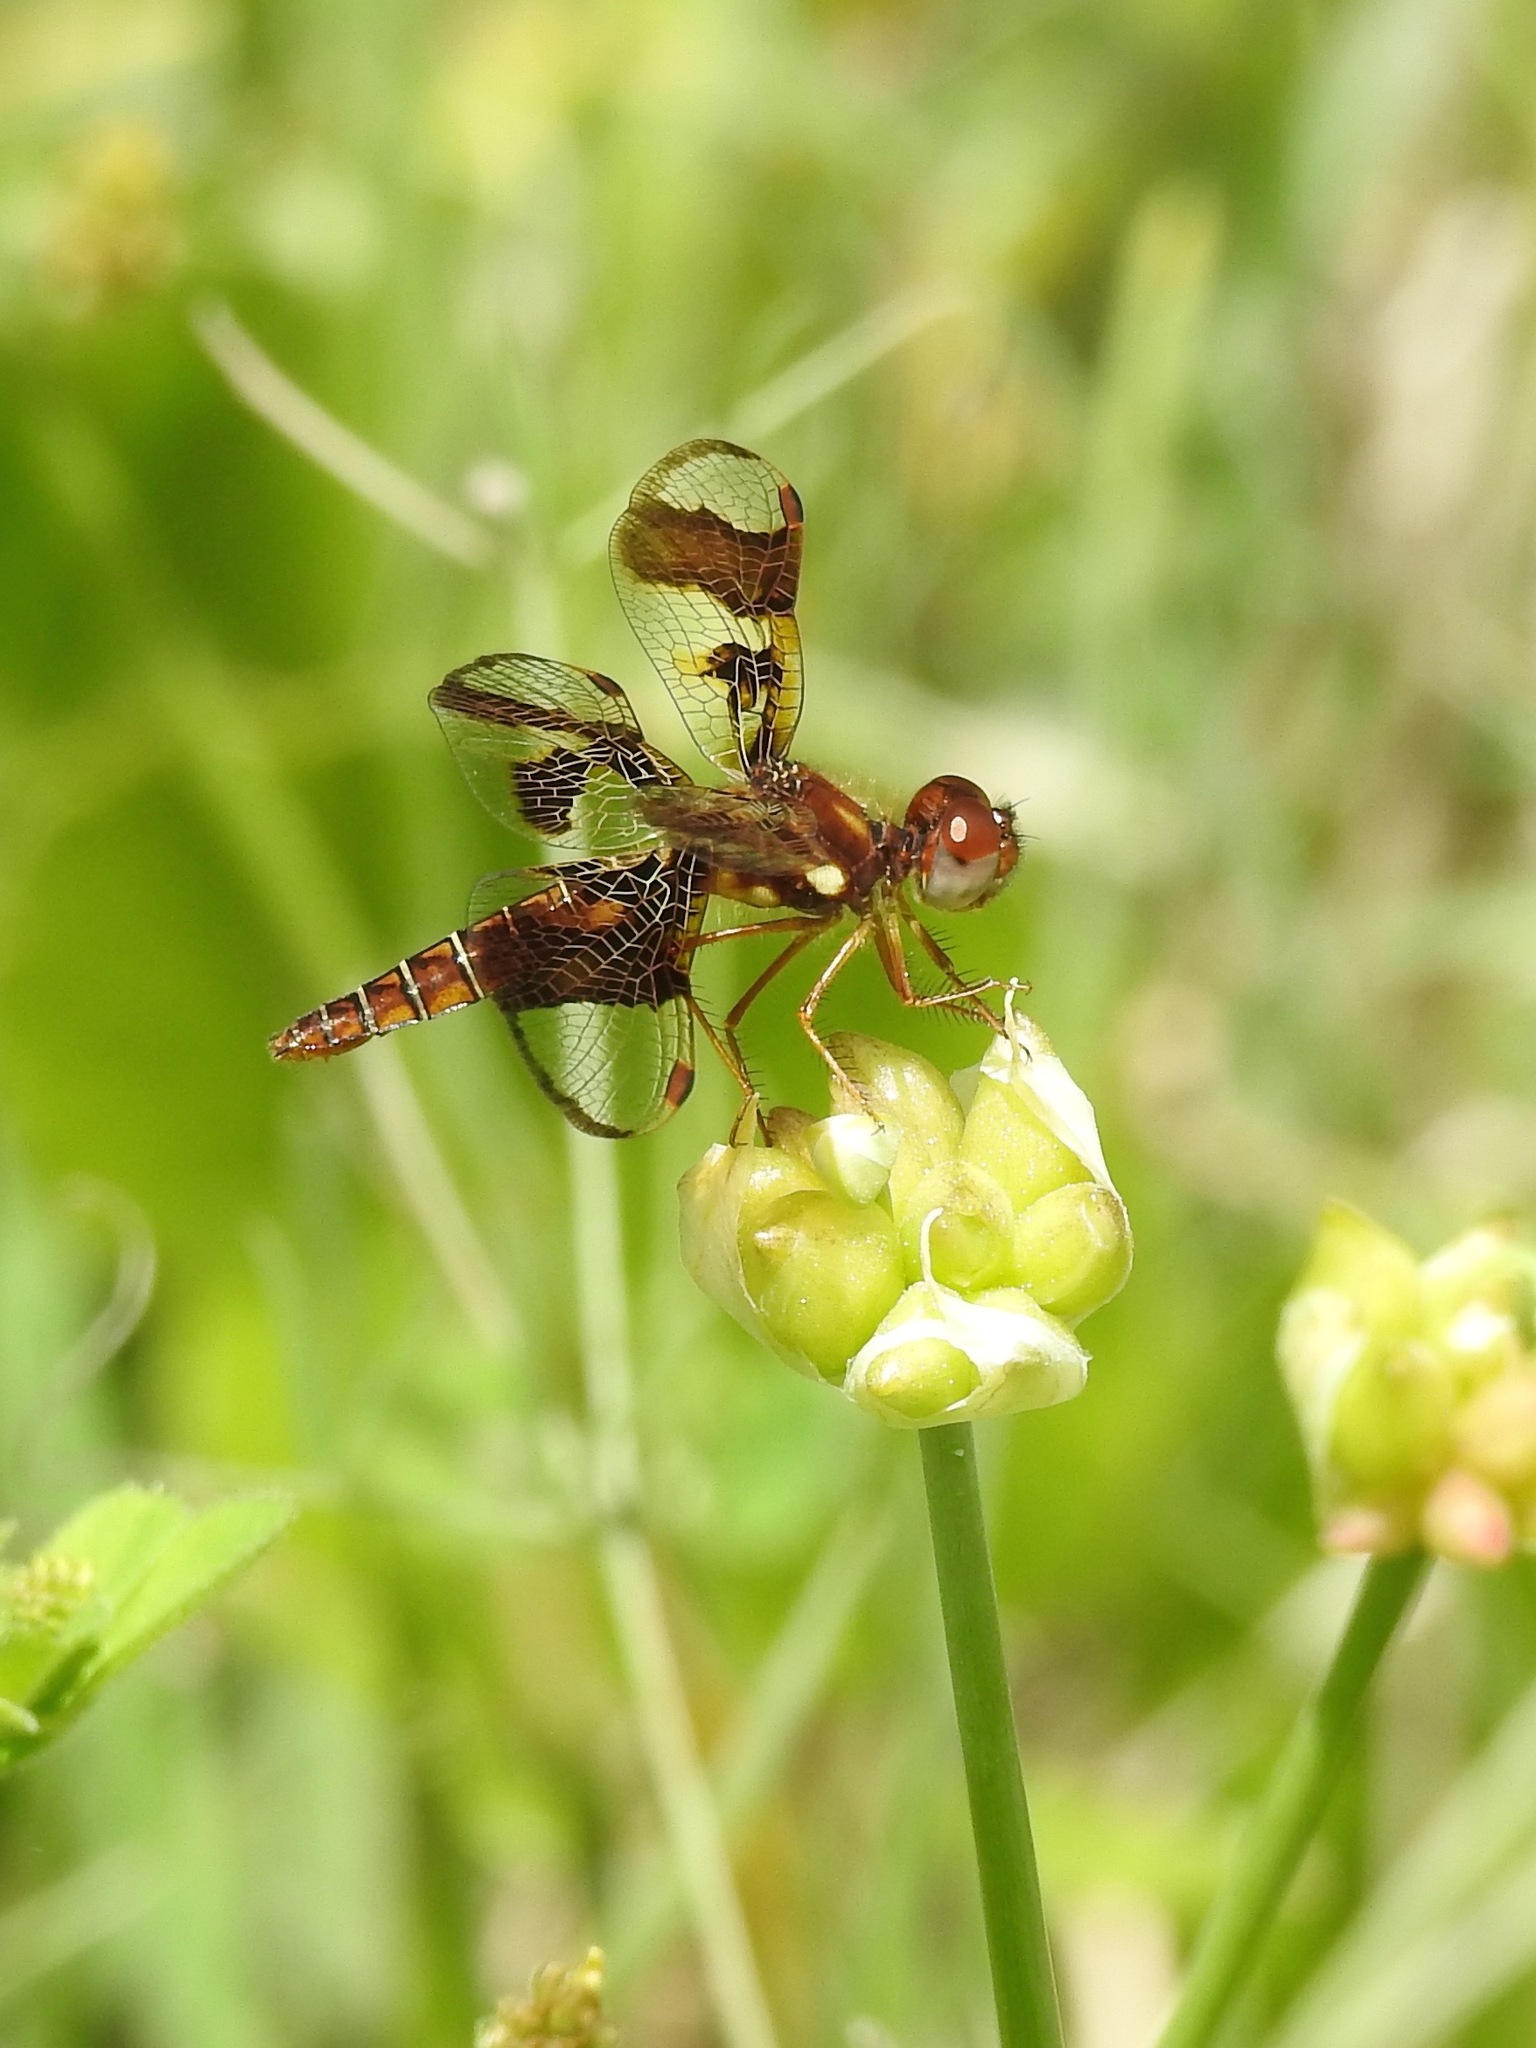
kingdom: Animalia
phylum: Arthropoda
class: Insecta
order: Odonata
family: Libellulidae
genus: Perithemis
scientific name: Perithemis tenera
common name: Eastern amberwing
